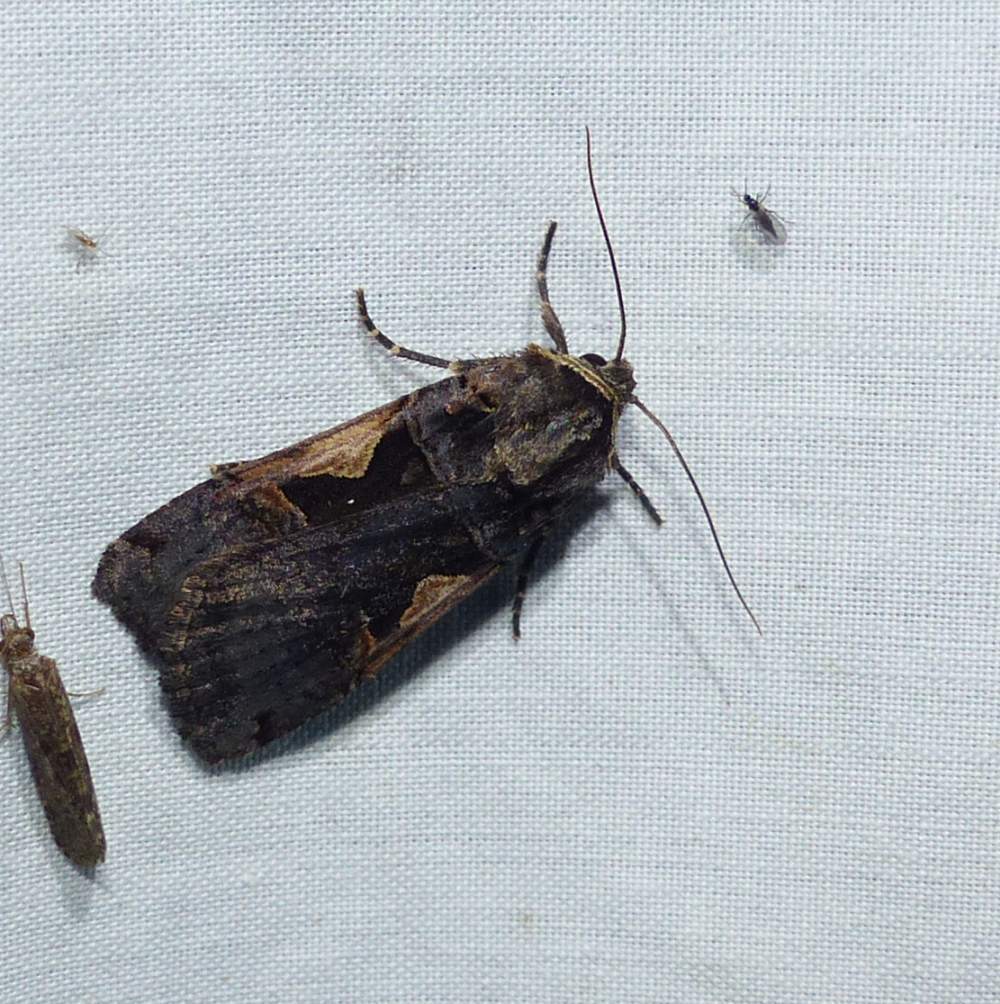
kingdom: Animalia
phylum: Arthropoda
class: Insecta
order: Lepidoptera
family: Noctuidae
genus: Xestia
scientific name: Xestia
